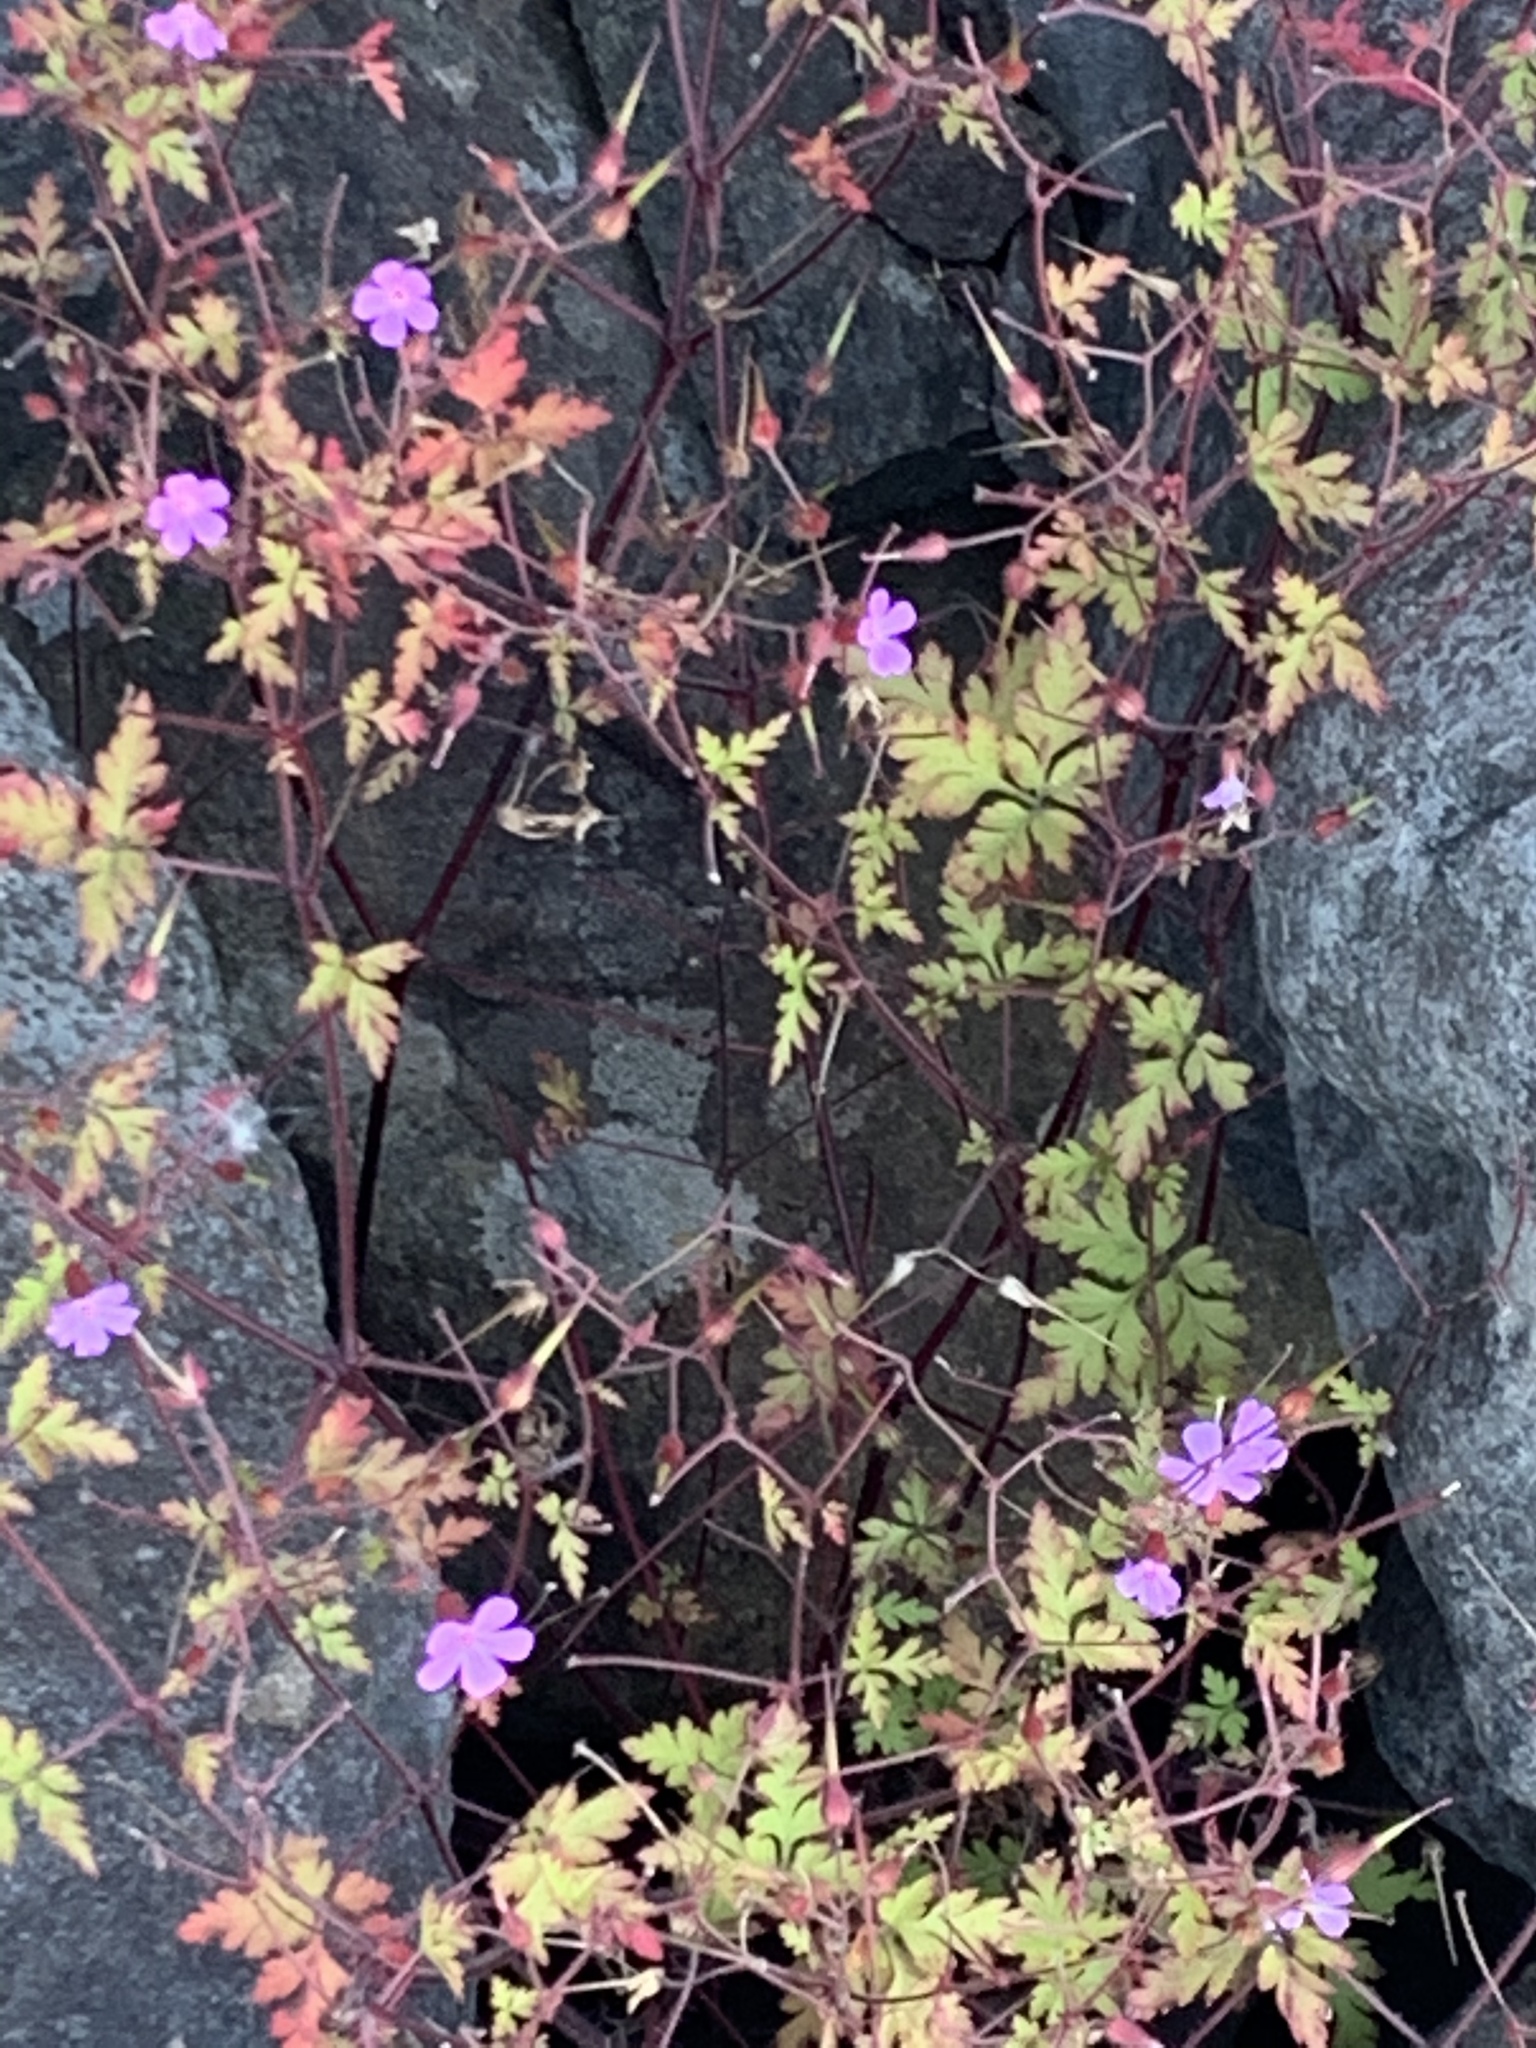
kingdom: Plantae
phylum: Tracheophyta
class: Magnoliopsida
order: Geraniales
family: Geraniaceae
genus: Geranium
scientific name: Geranium robertianum
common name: Herb-robert
